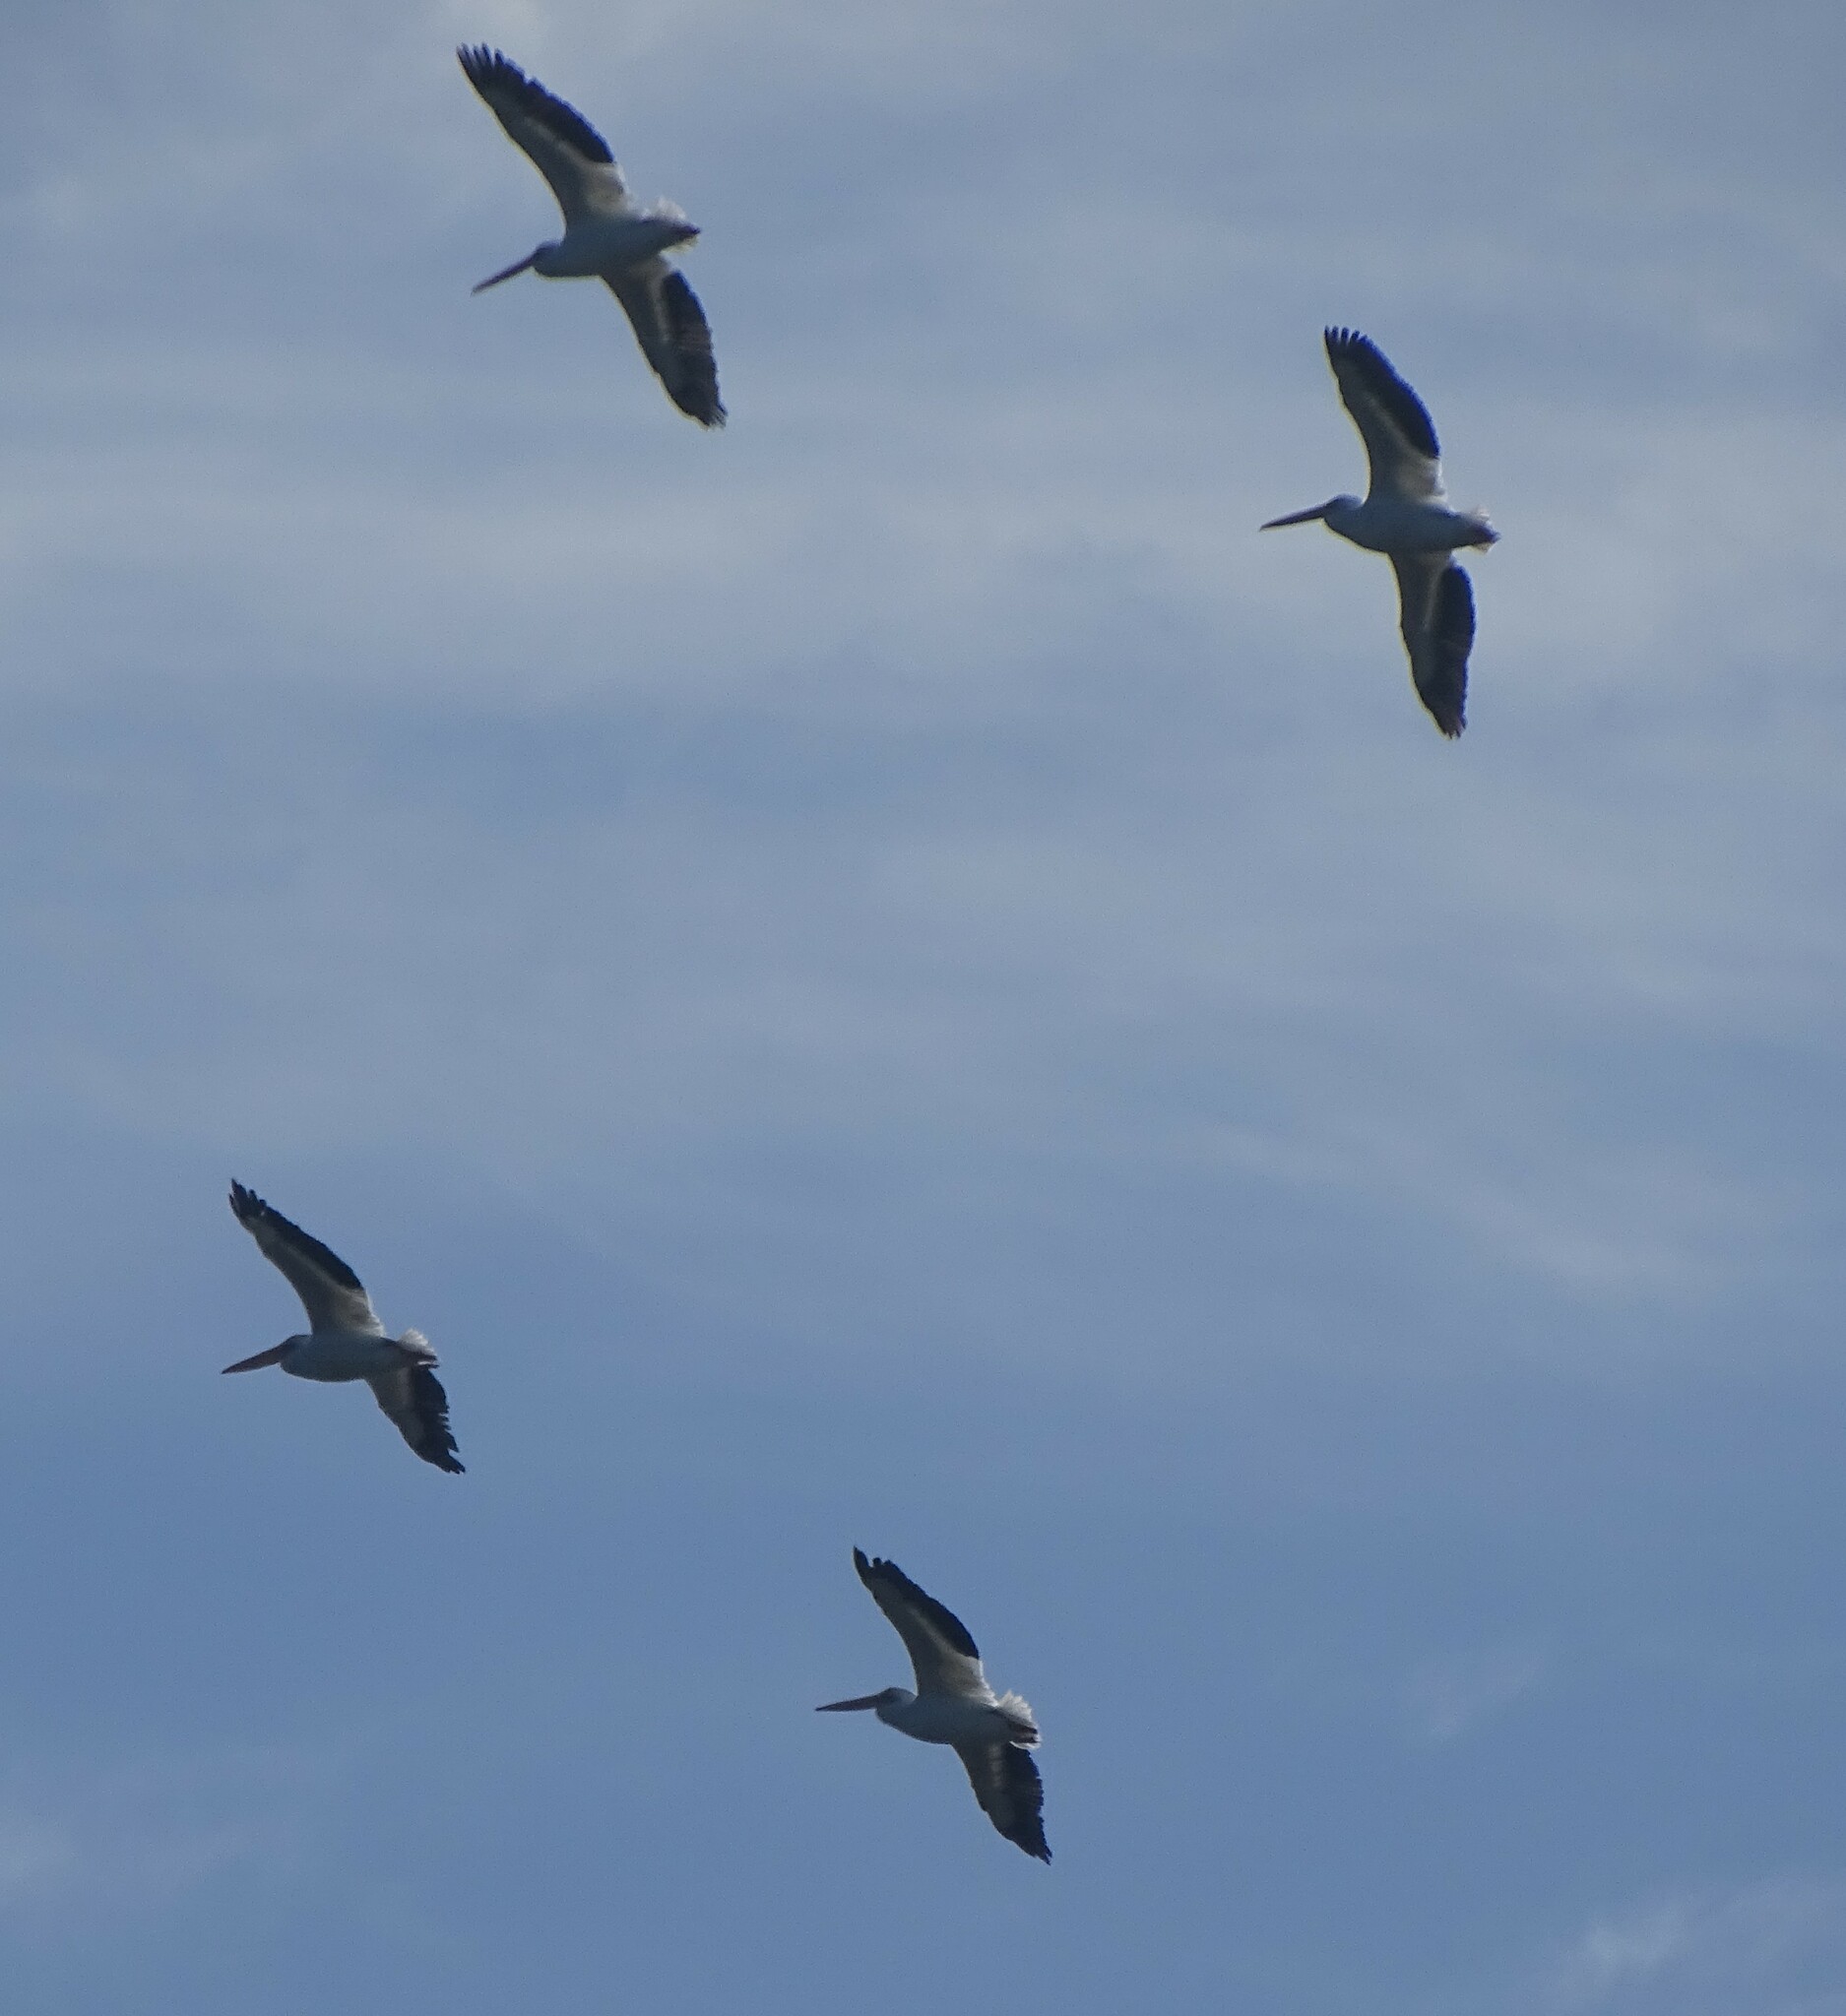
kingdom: Animalia
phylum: Chordata
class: Aves
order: Pelecaniformes
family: Pelecanidae
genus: Pelecanus
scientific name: Pelecanus erythrorhynchos
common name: American white pelican
